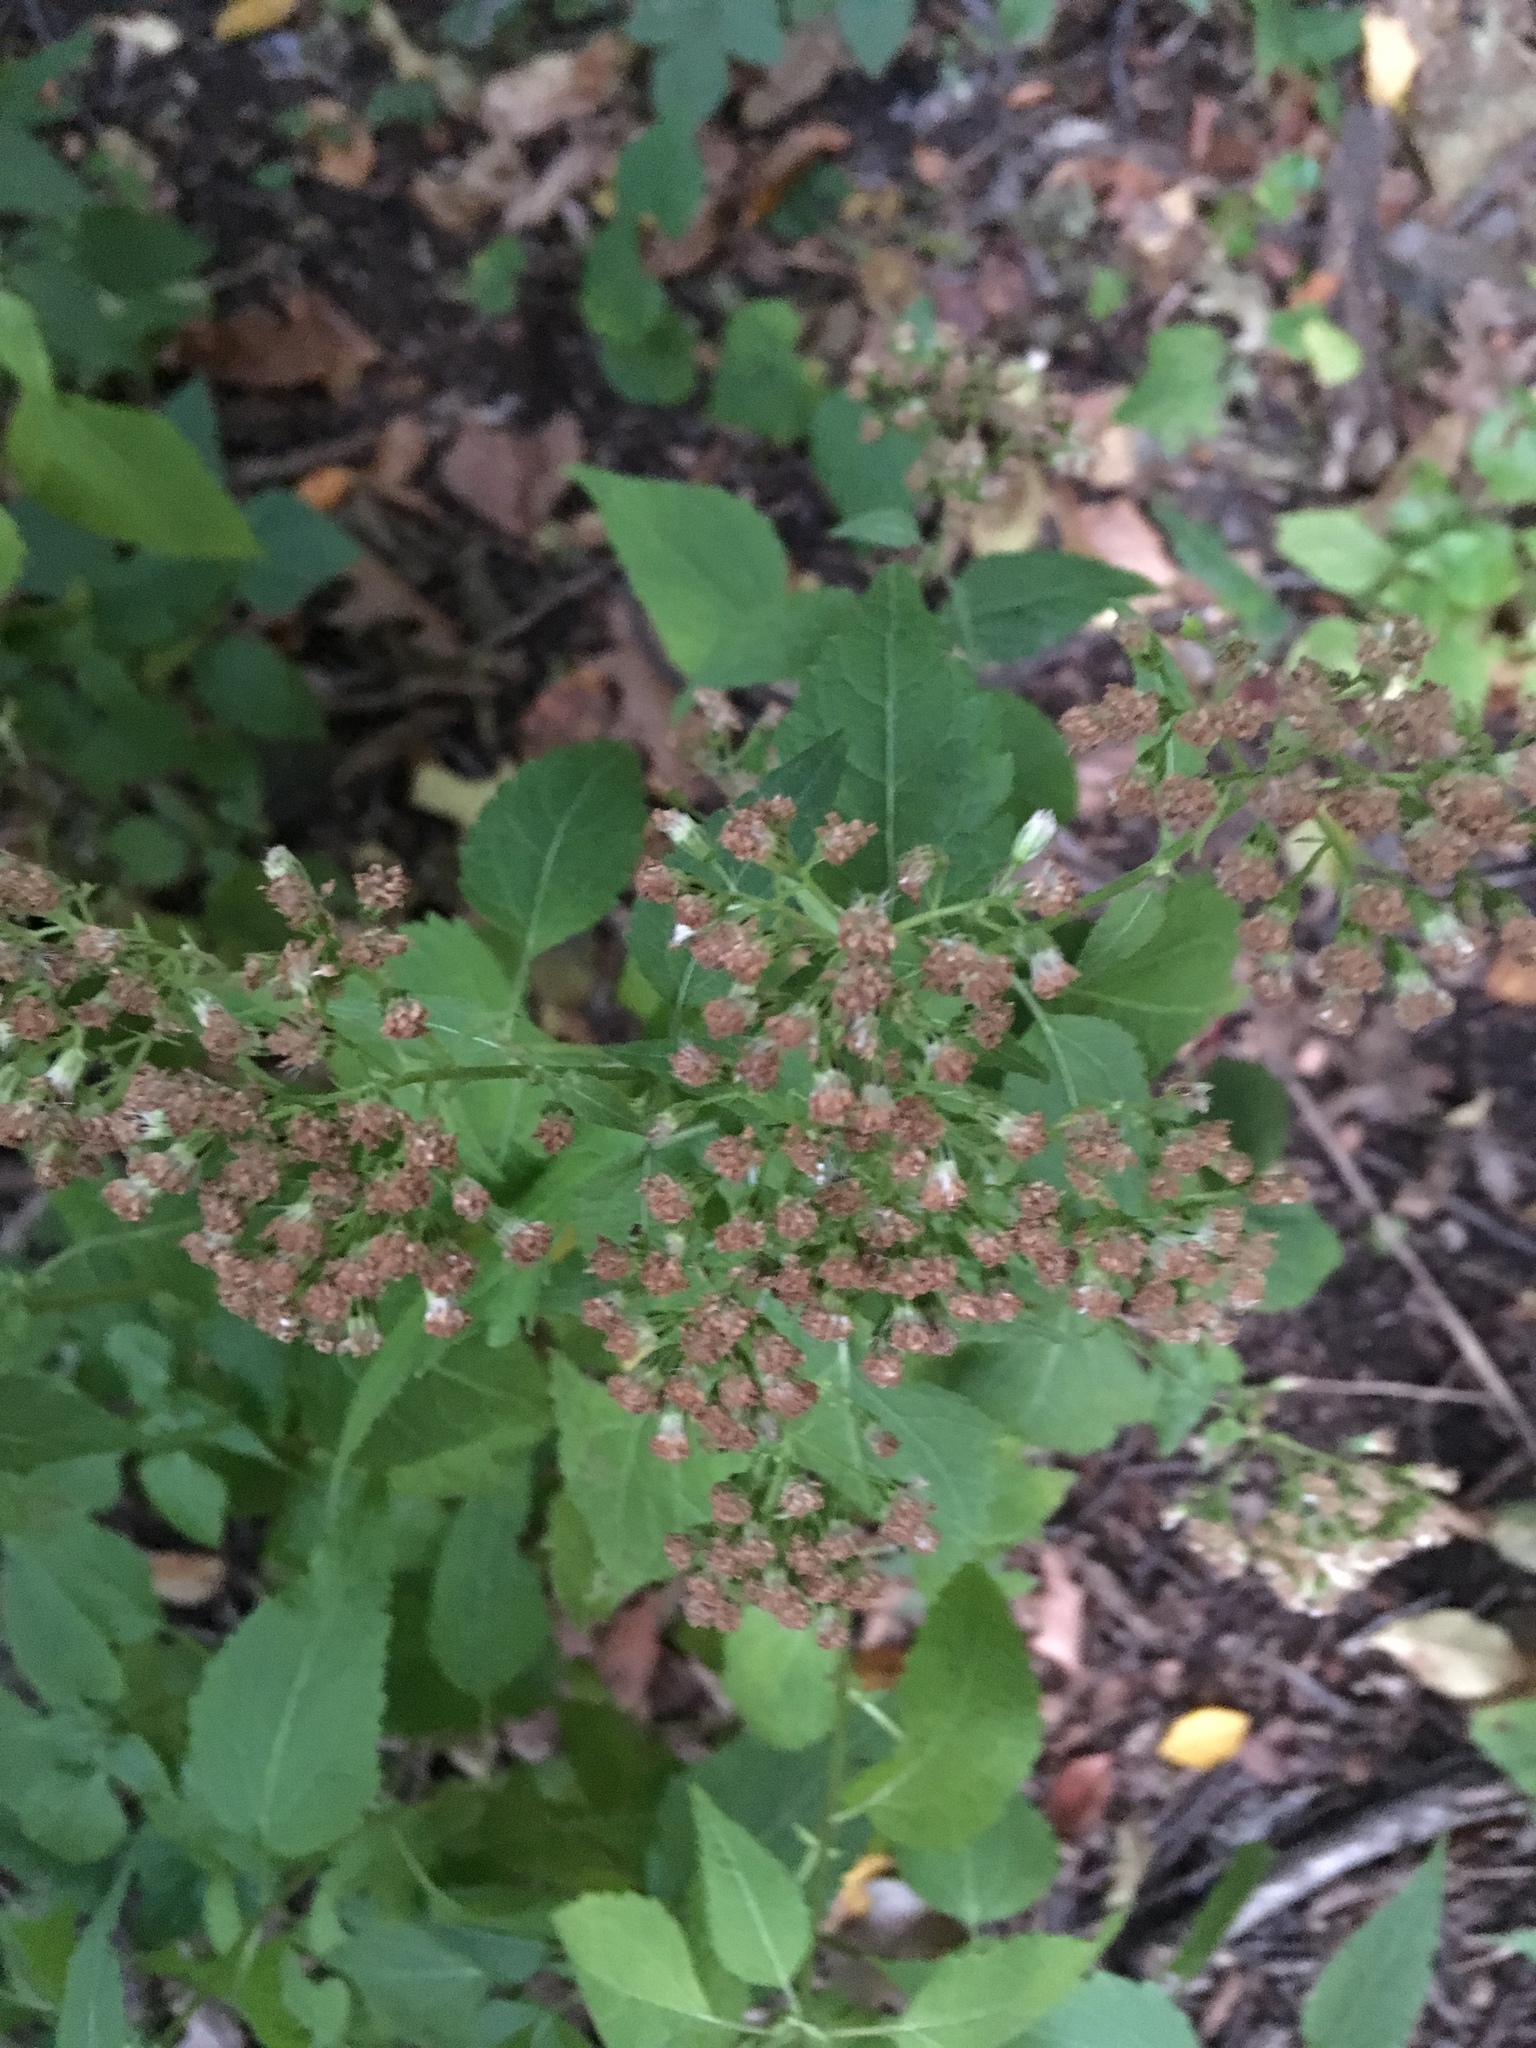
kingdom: Plantae
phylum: Tracheophyta
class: Magnoliopsida
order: Asterales
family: Asteraceae
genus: Ageratina
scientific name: Ageratina altissima
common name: White snakeroot
